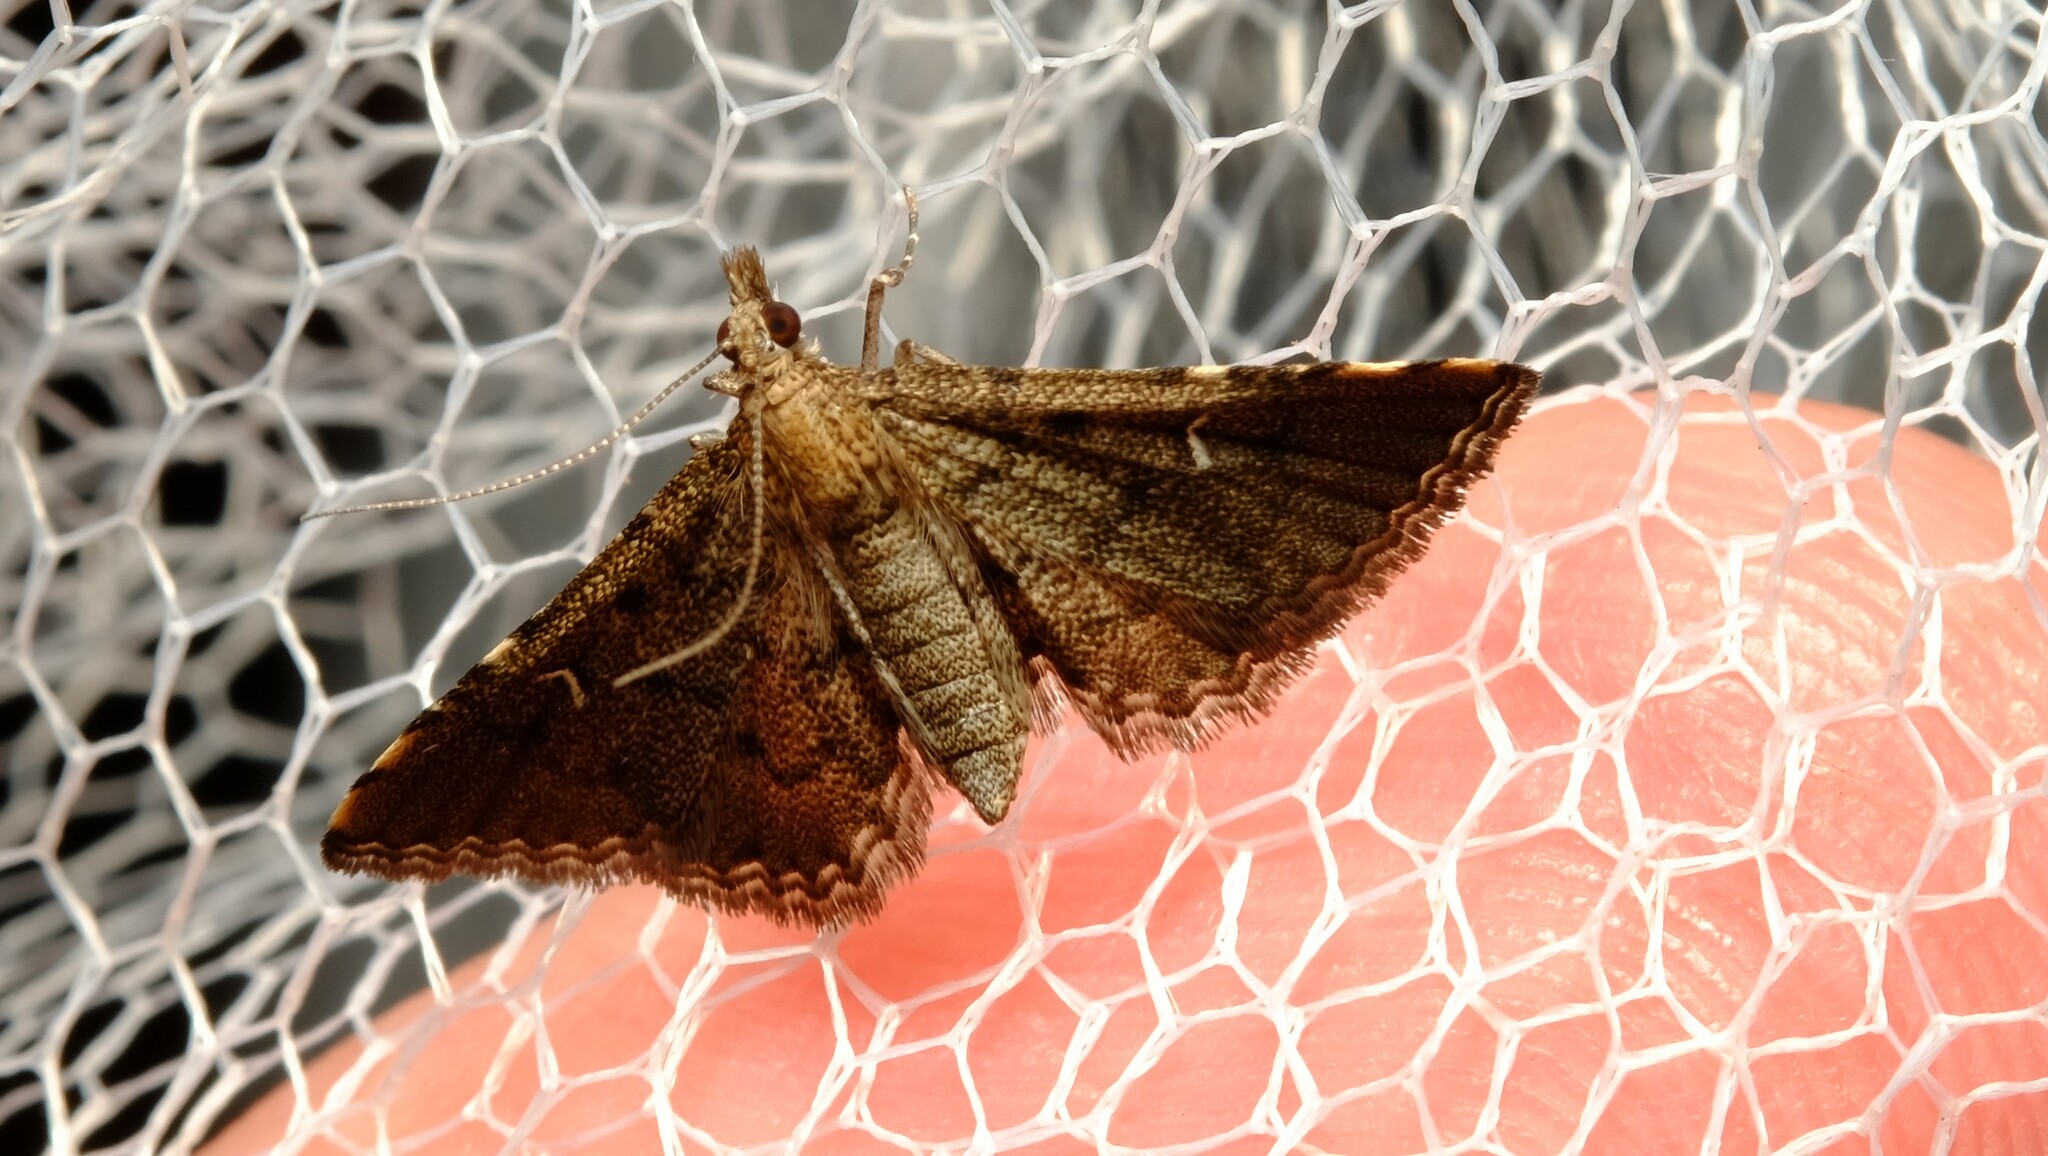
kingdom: Animalia
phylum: Arthropoda
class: Insecta
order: Lepidoptera
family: Crambidae
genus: Metasia
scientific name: Metasia capnochroa
